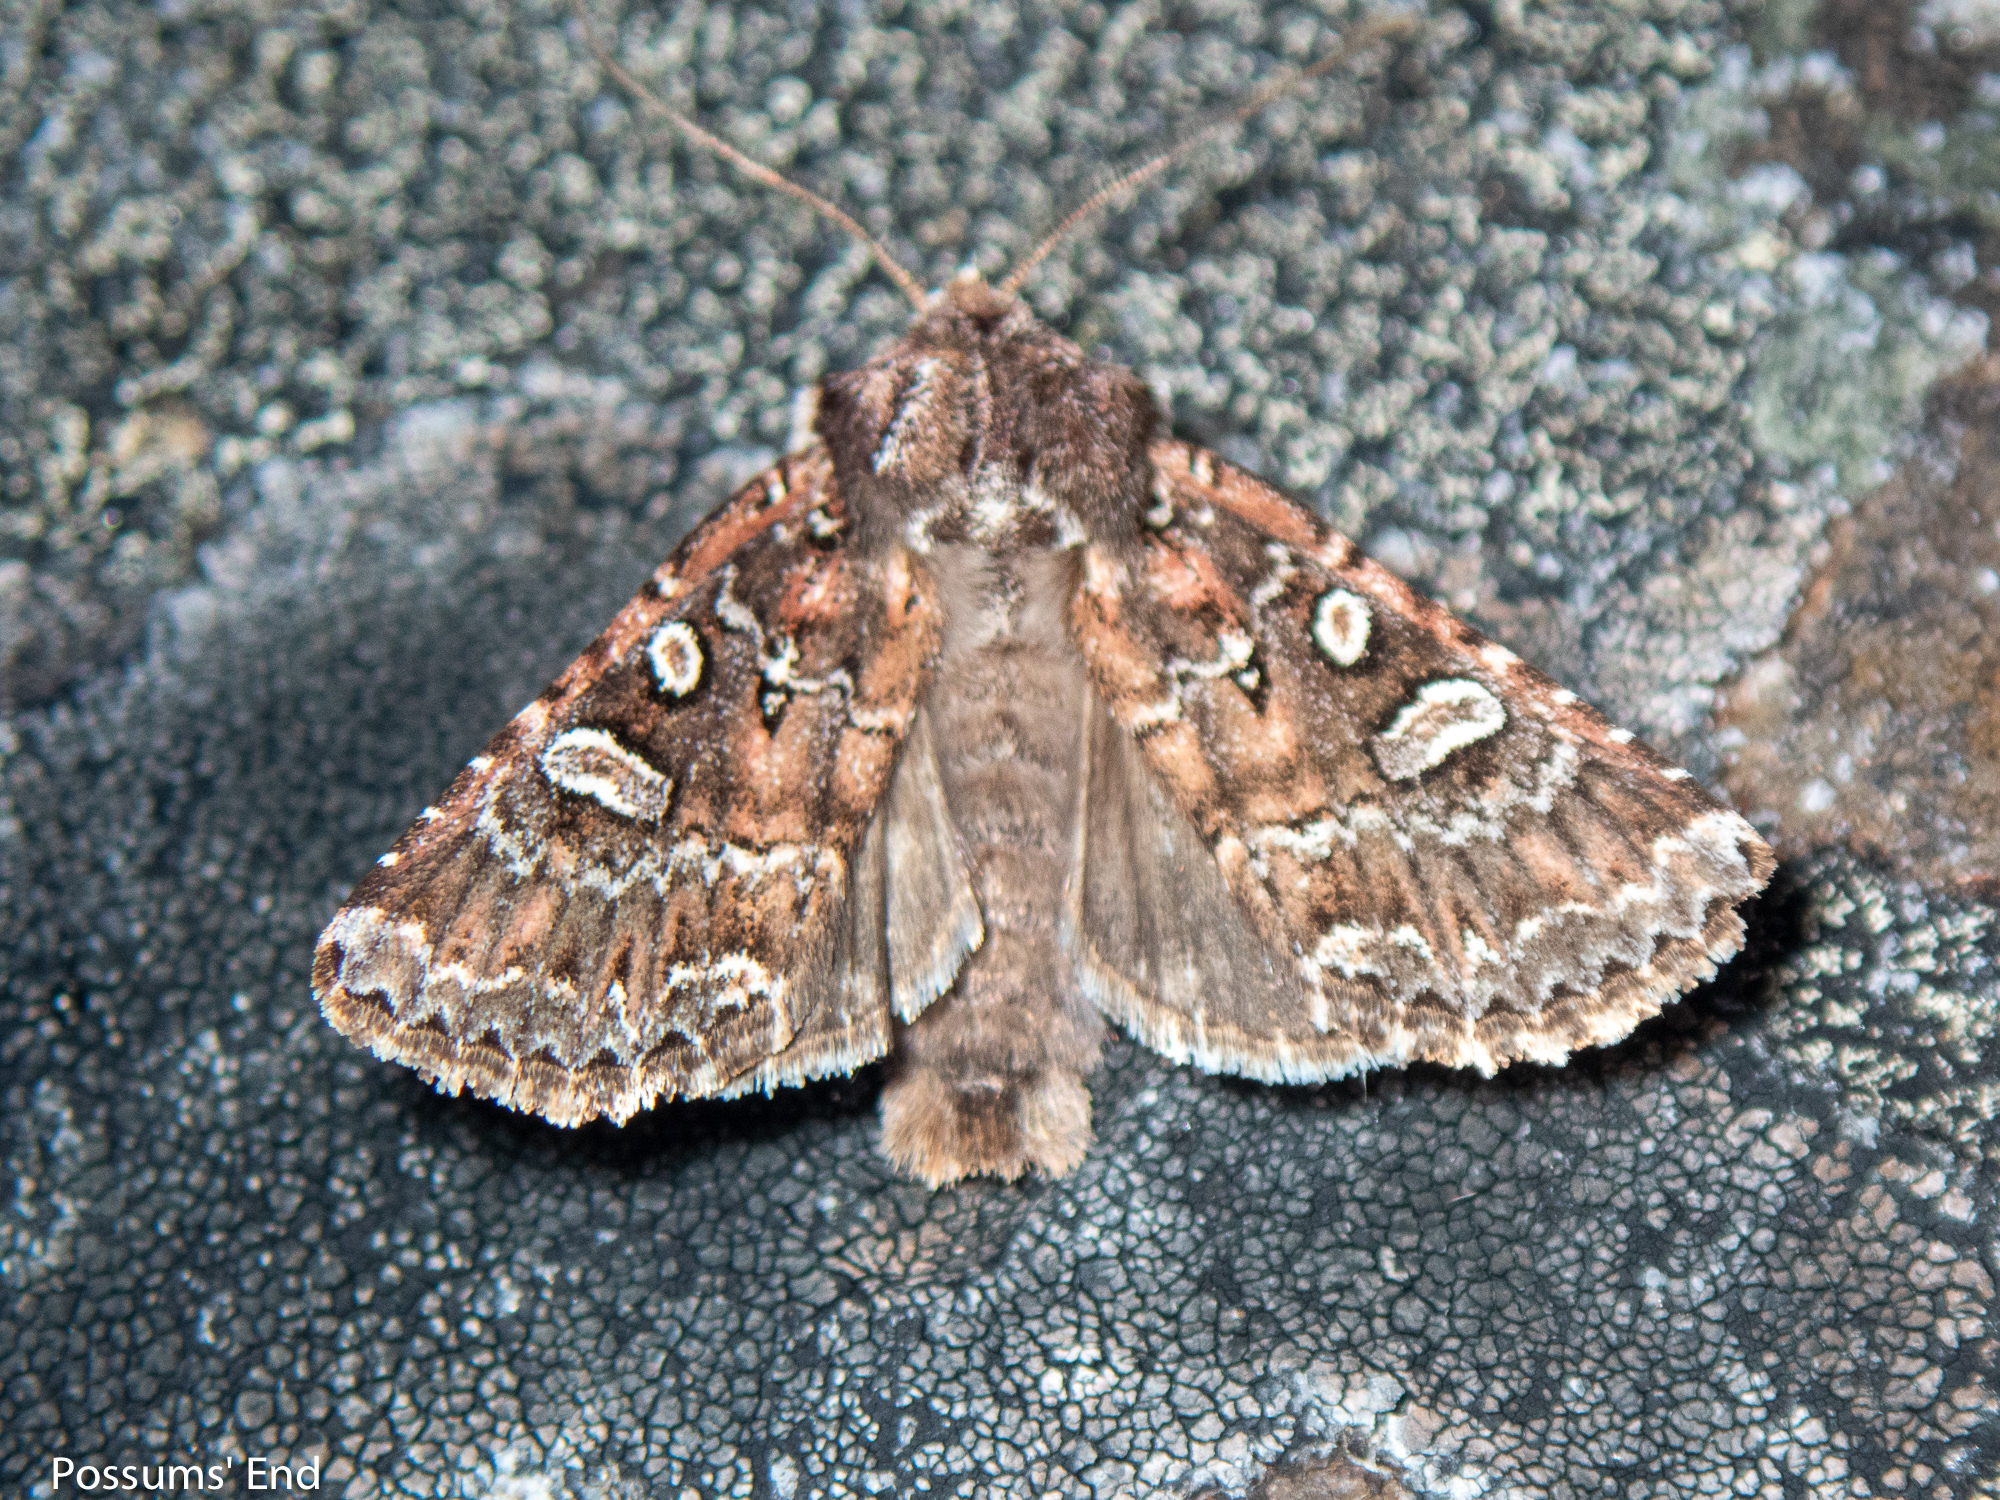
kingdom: Animalia
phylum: Arthropoda
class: Insecta
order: Lepidoptera
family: Noctuidae
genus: Ichneutica
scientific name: Ichneutica lithias
